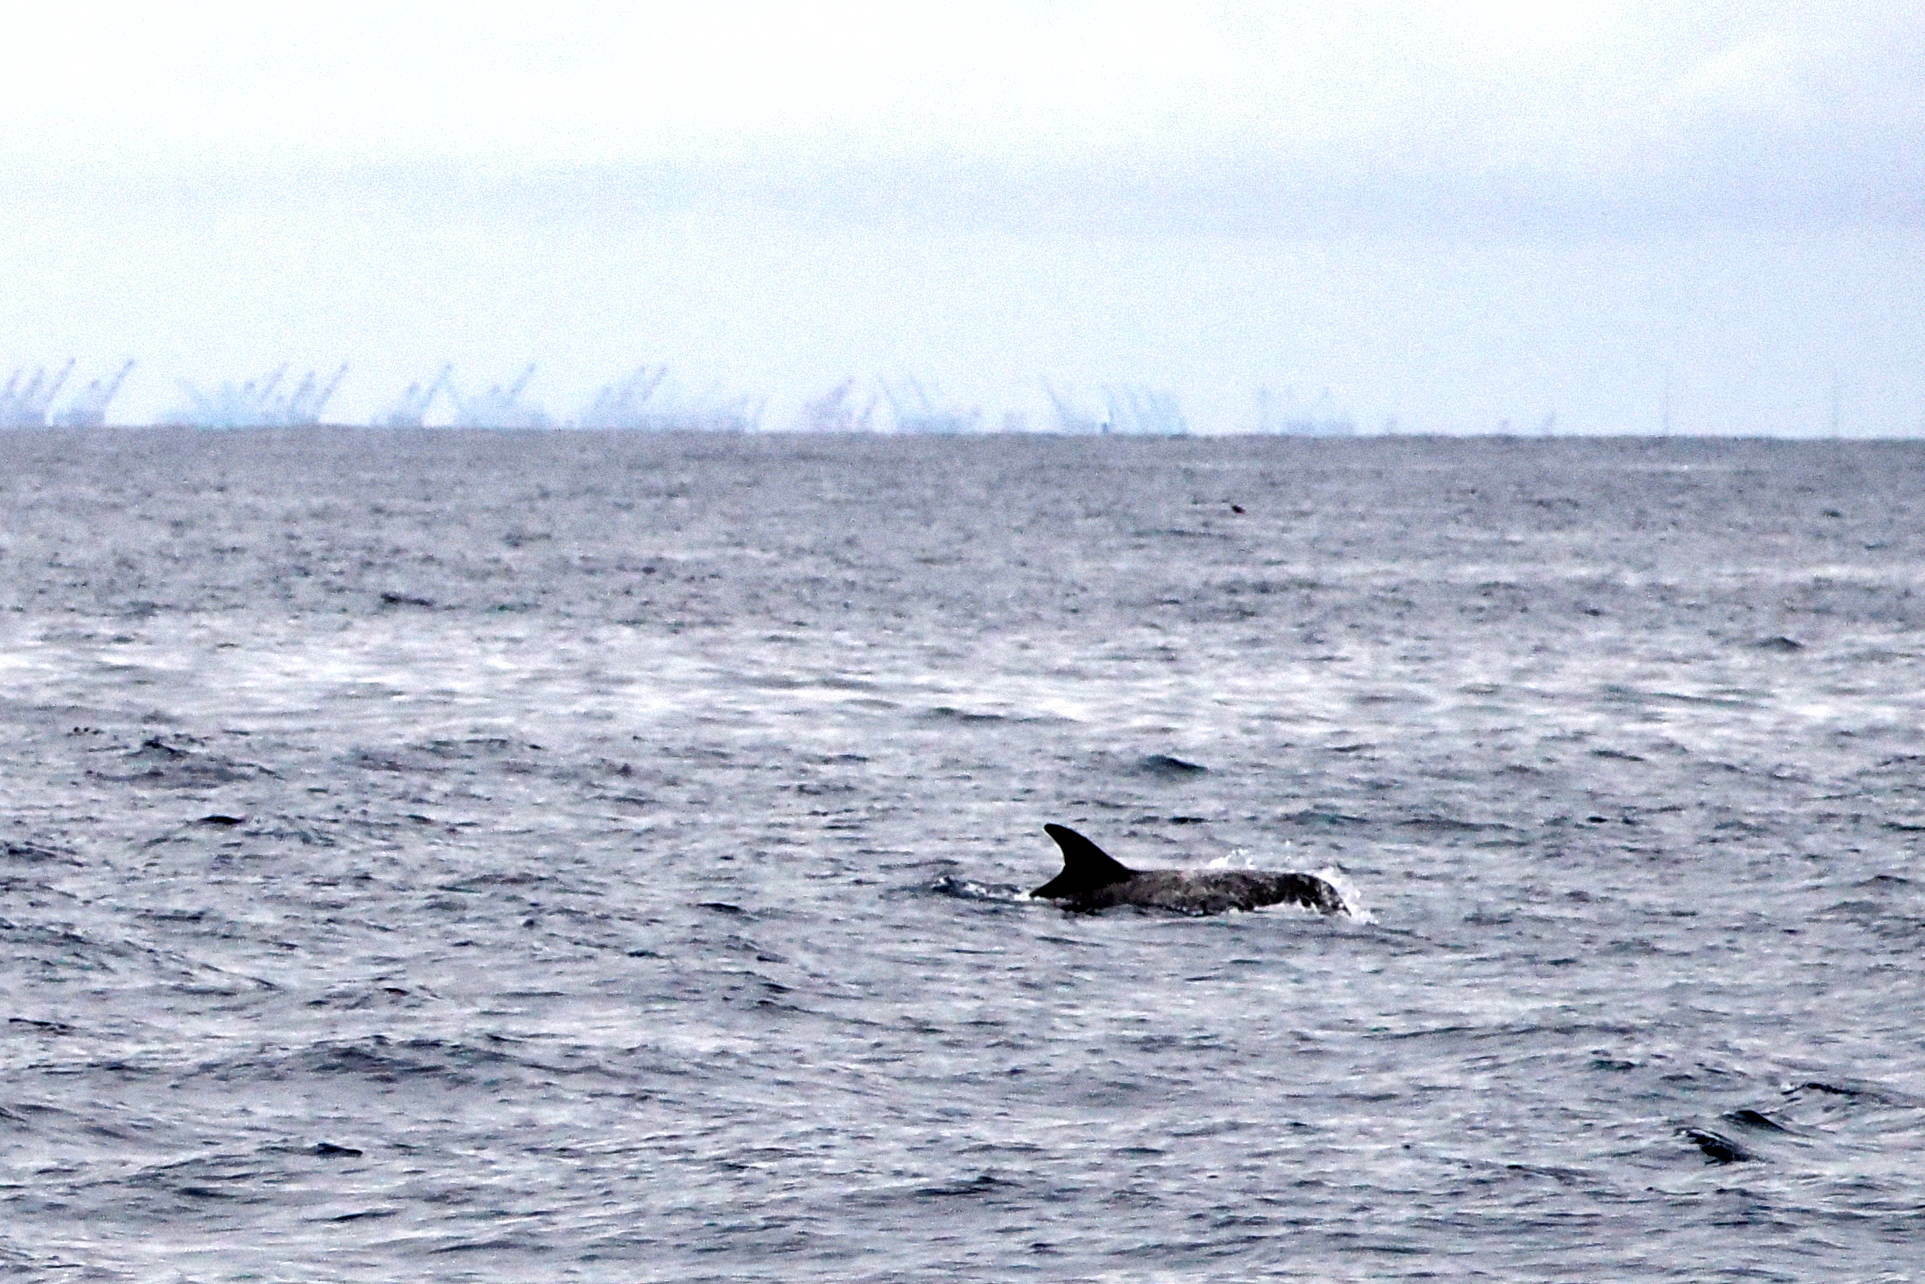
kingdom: Animalia
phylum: Chordata
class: Mammalia
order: Cetacea
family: Delphinidae
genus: Grampus
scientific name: Grampus griseus
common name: Risso's dolphin
